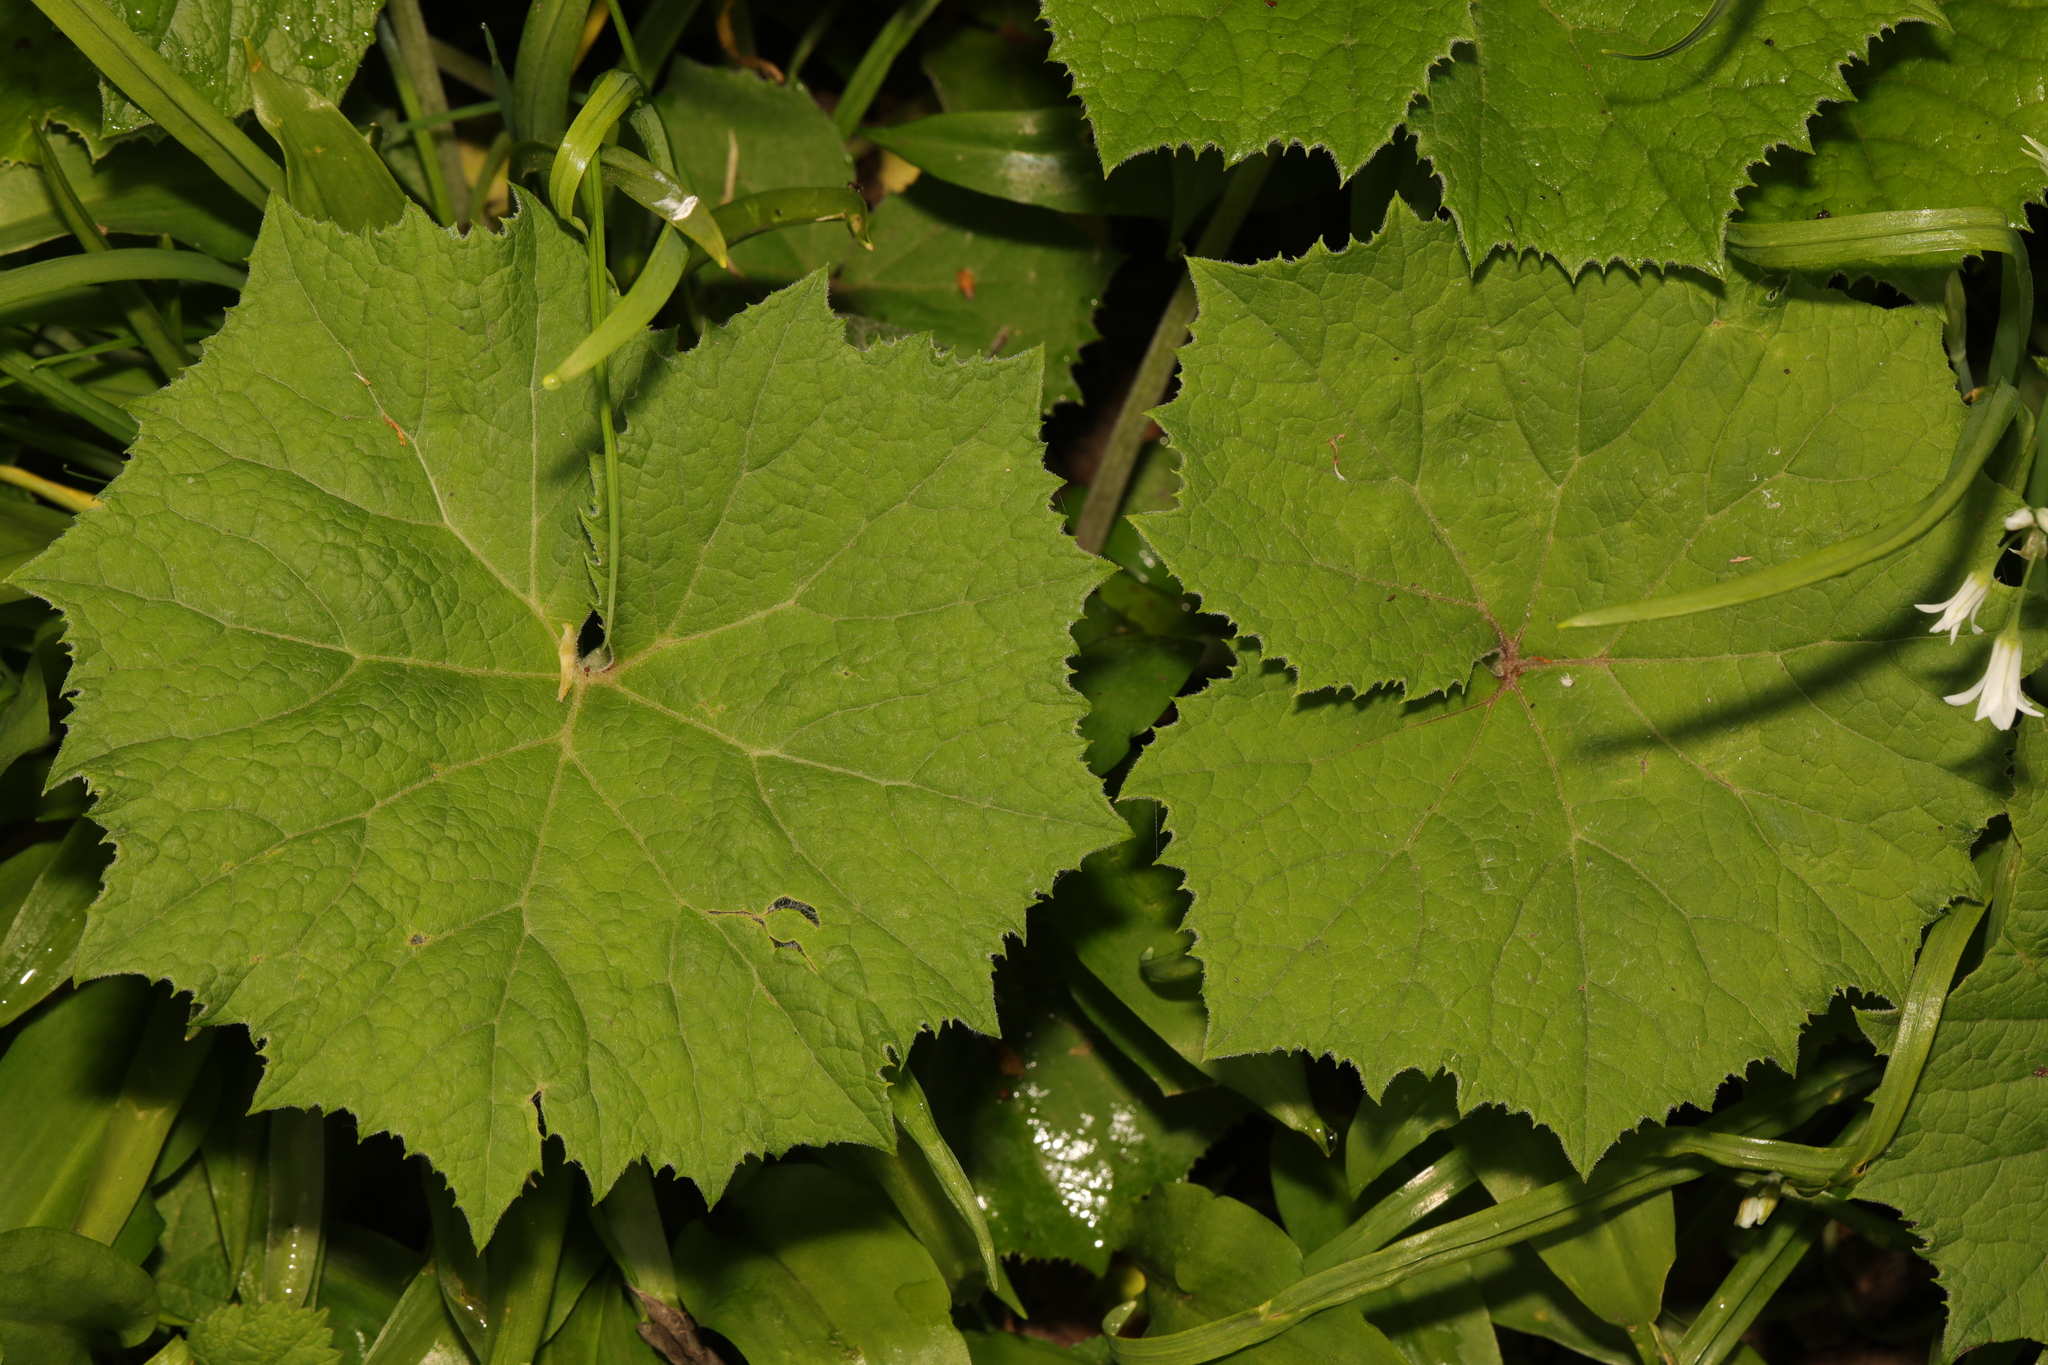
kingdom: Plantae
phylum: Tracheophyta
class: Magnoliopsida
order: Asterales
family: Asteraceae
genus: Petasites
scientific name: Petasites albus
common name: White butterbur
